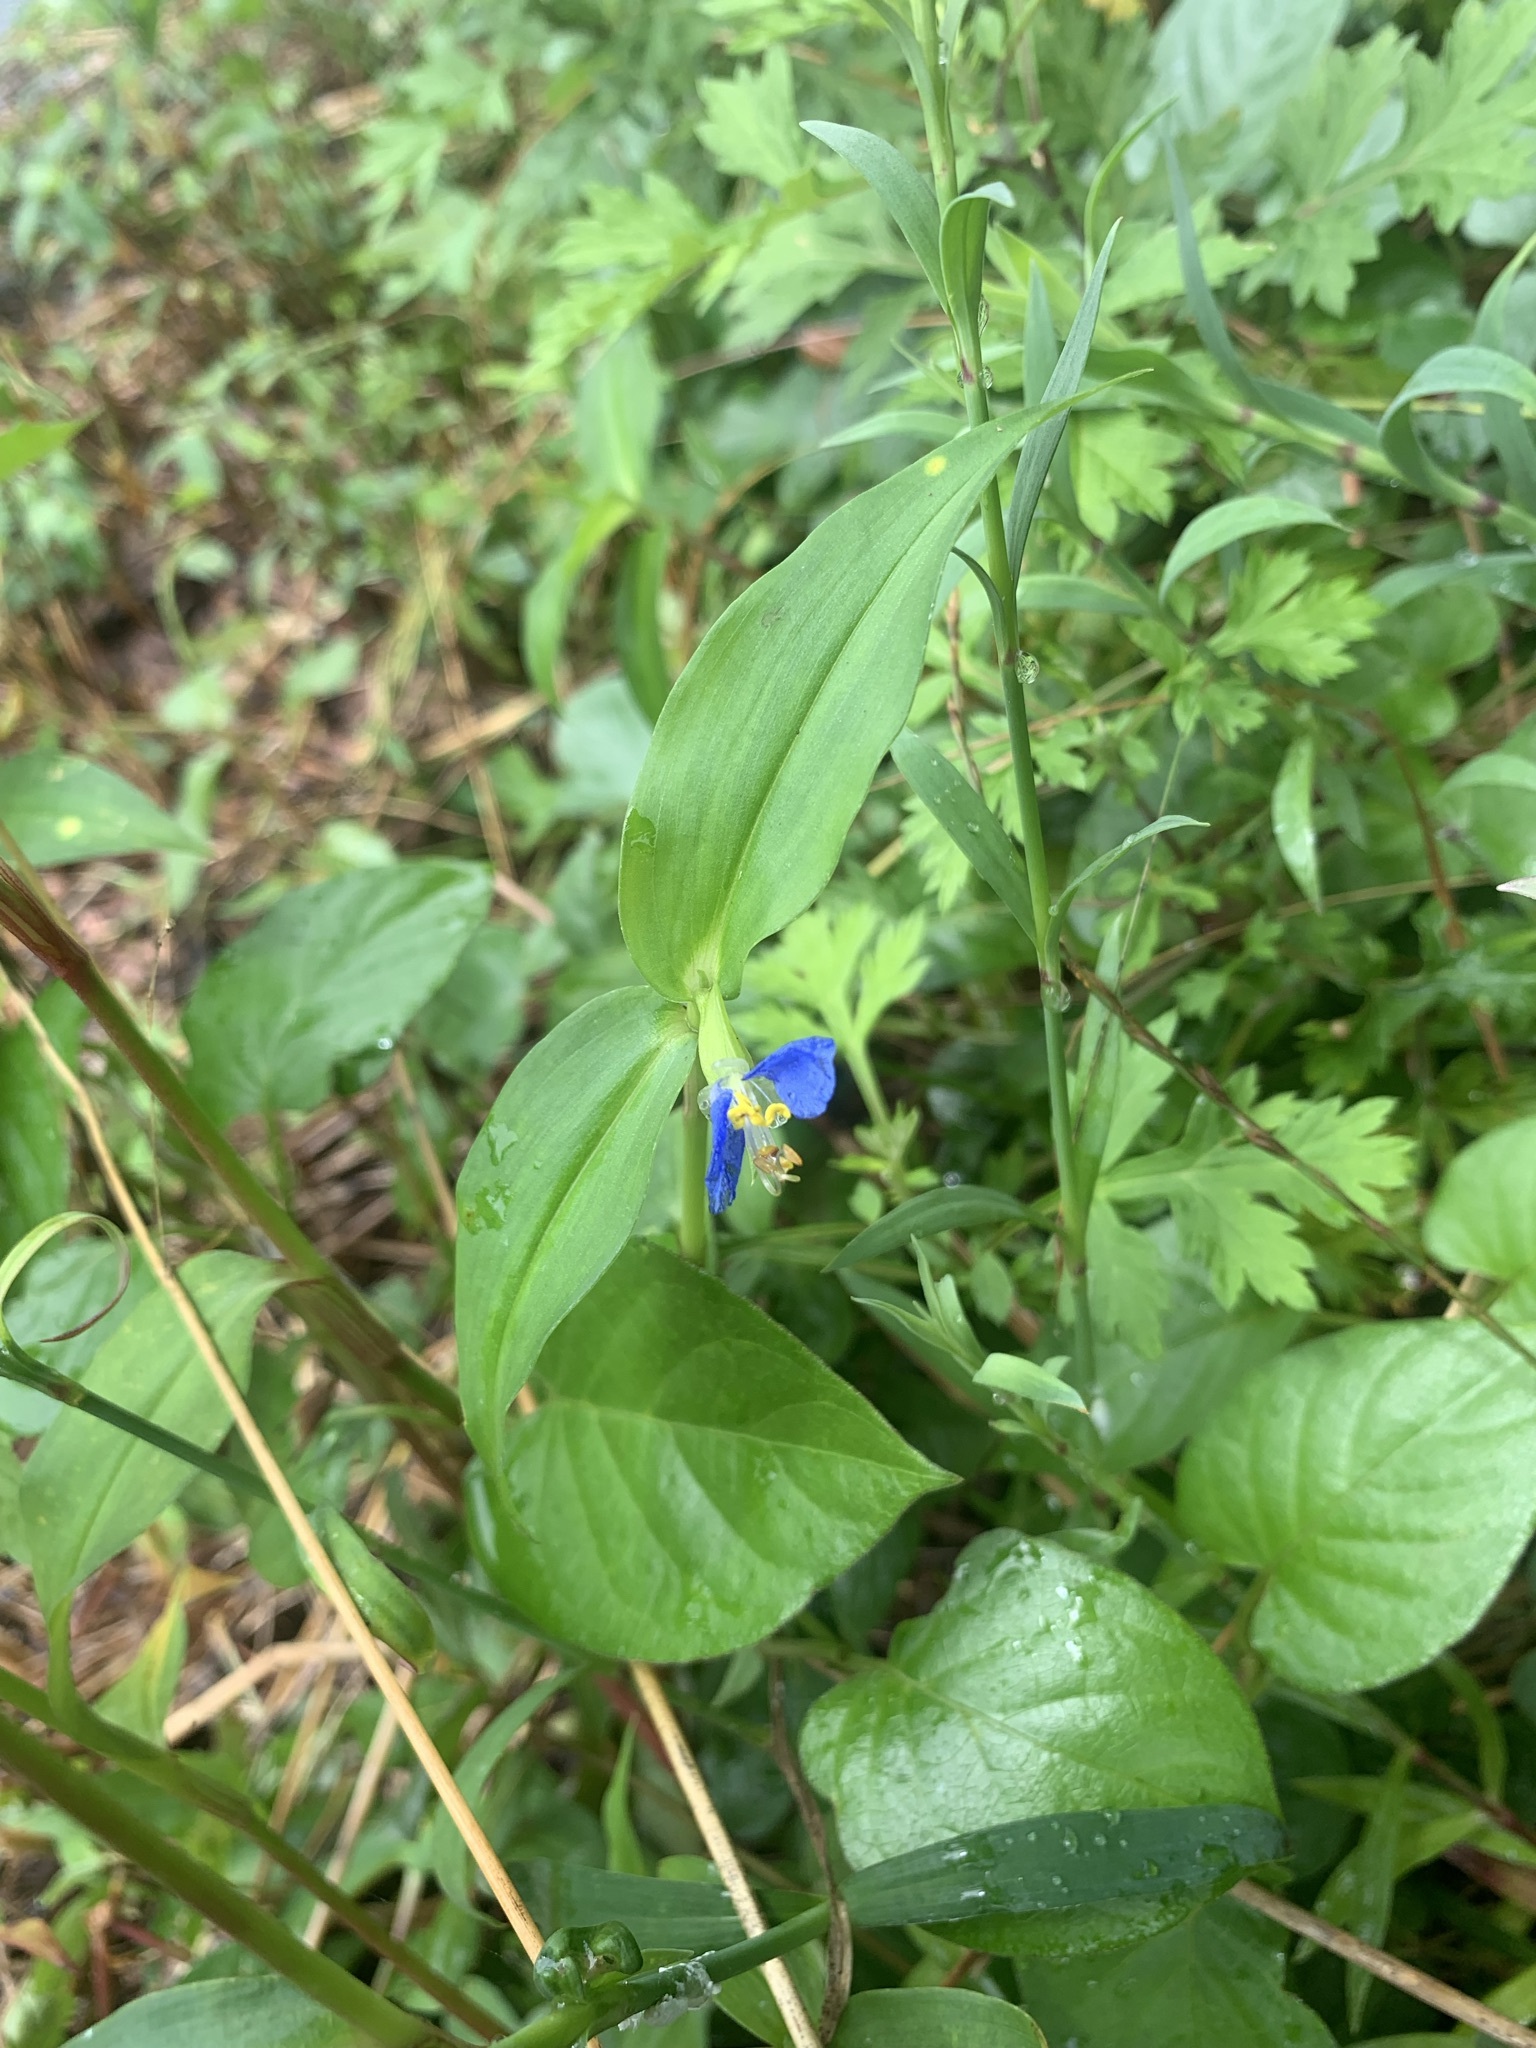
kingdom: Plantae
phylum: Tracheophyta
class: Liliopsida
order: Commelinales
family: Commelinaceae
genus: Commelina
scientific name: Commelina communis
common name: Asiatic dayflower
